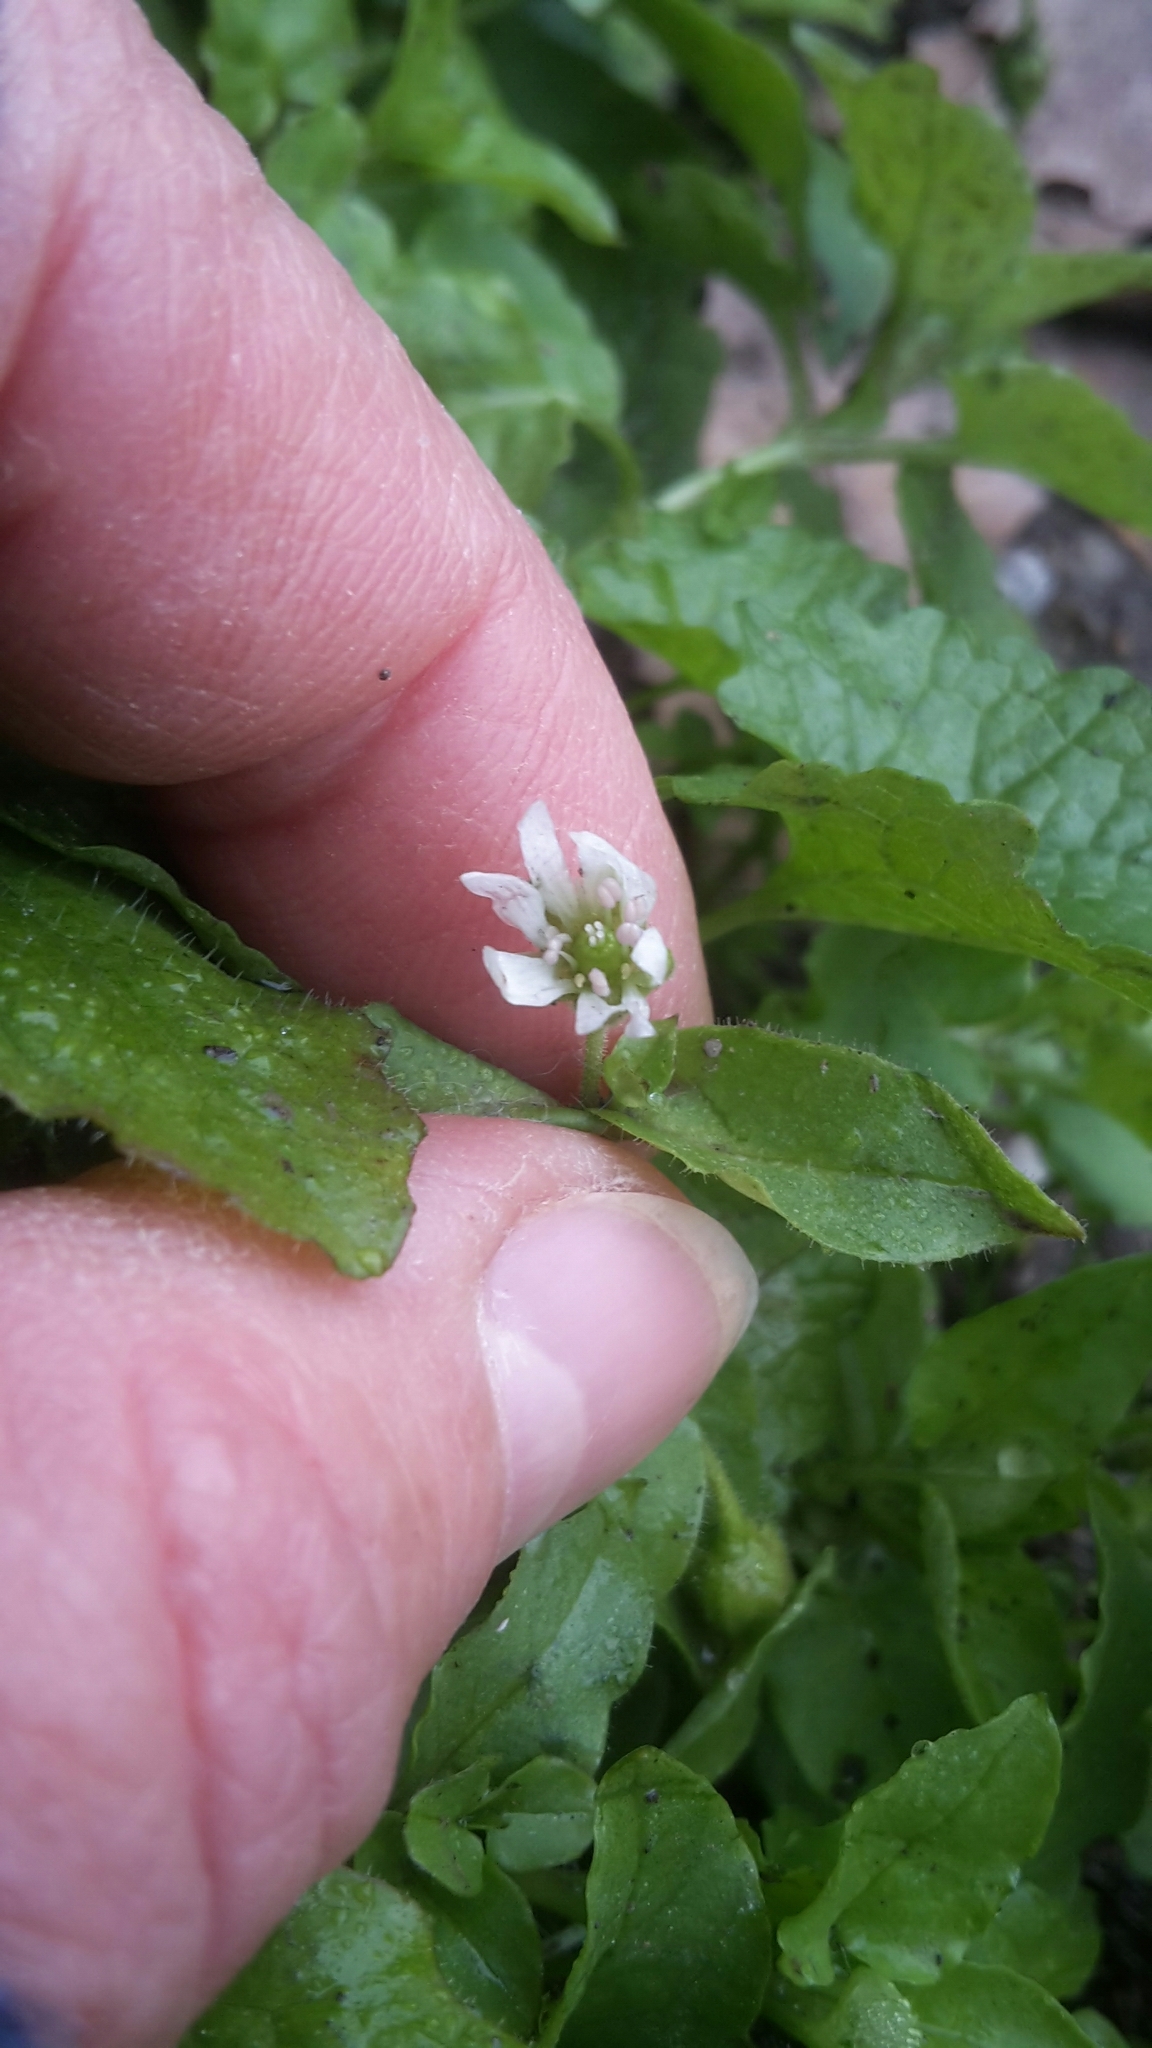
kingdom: Plantae
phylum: Tracheophyta
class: Magnoliopsida
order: Caryophyllales
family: Caryophyllaceae
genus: Stellaria
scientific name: Stellaria aquatica
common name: Water chickweed
